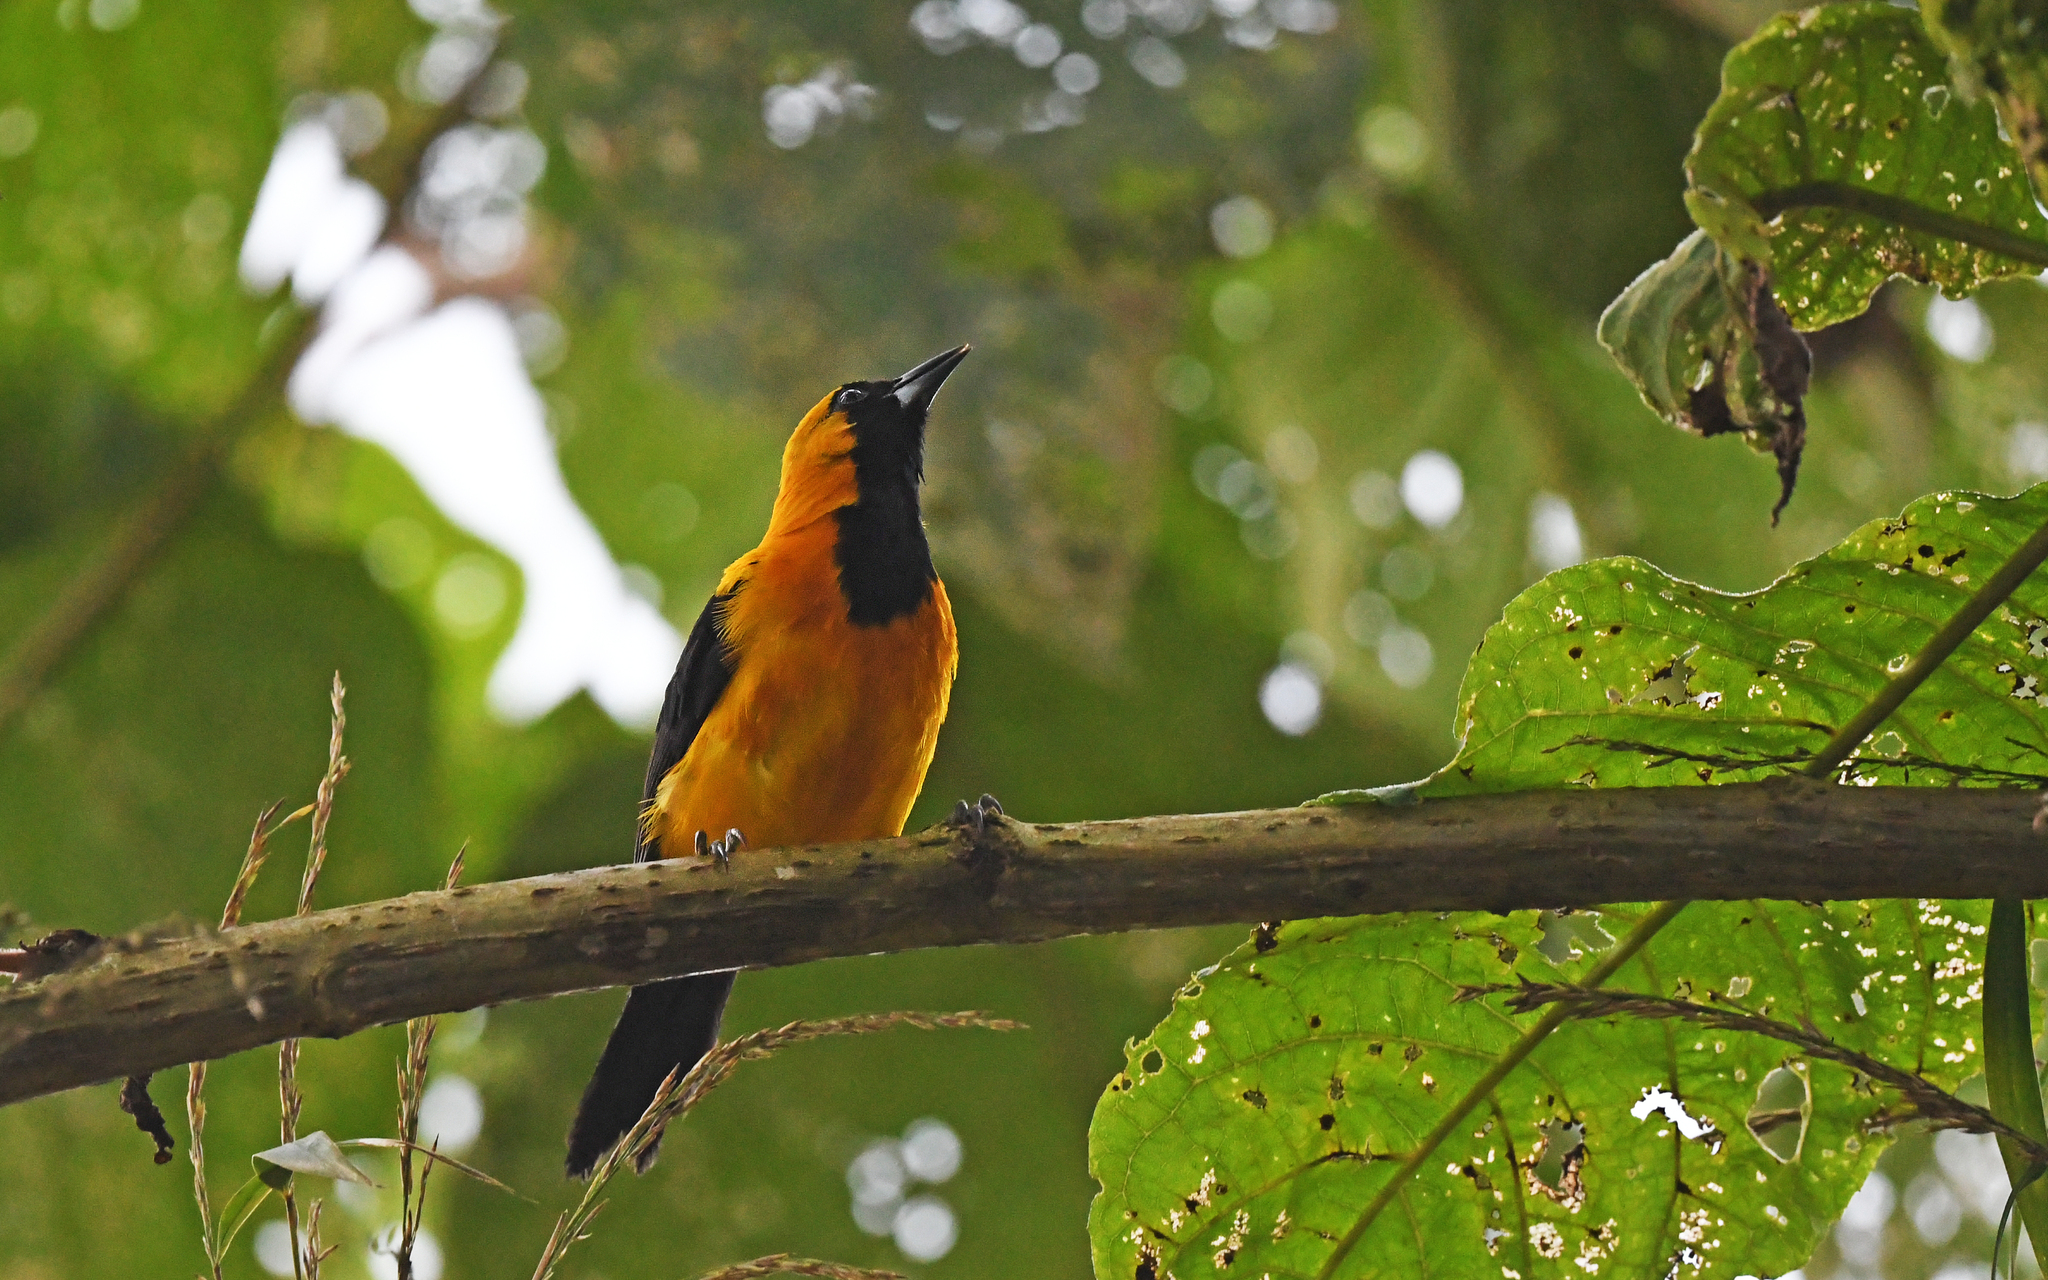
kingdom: Animalia
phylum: Chordata
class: Aves
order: Passeriformes
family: Icteridae
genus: Icterus
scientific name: Icterus chrysater
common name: Yellow-backed oriole
